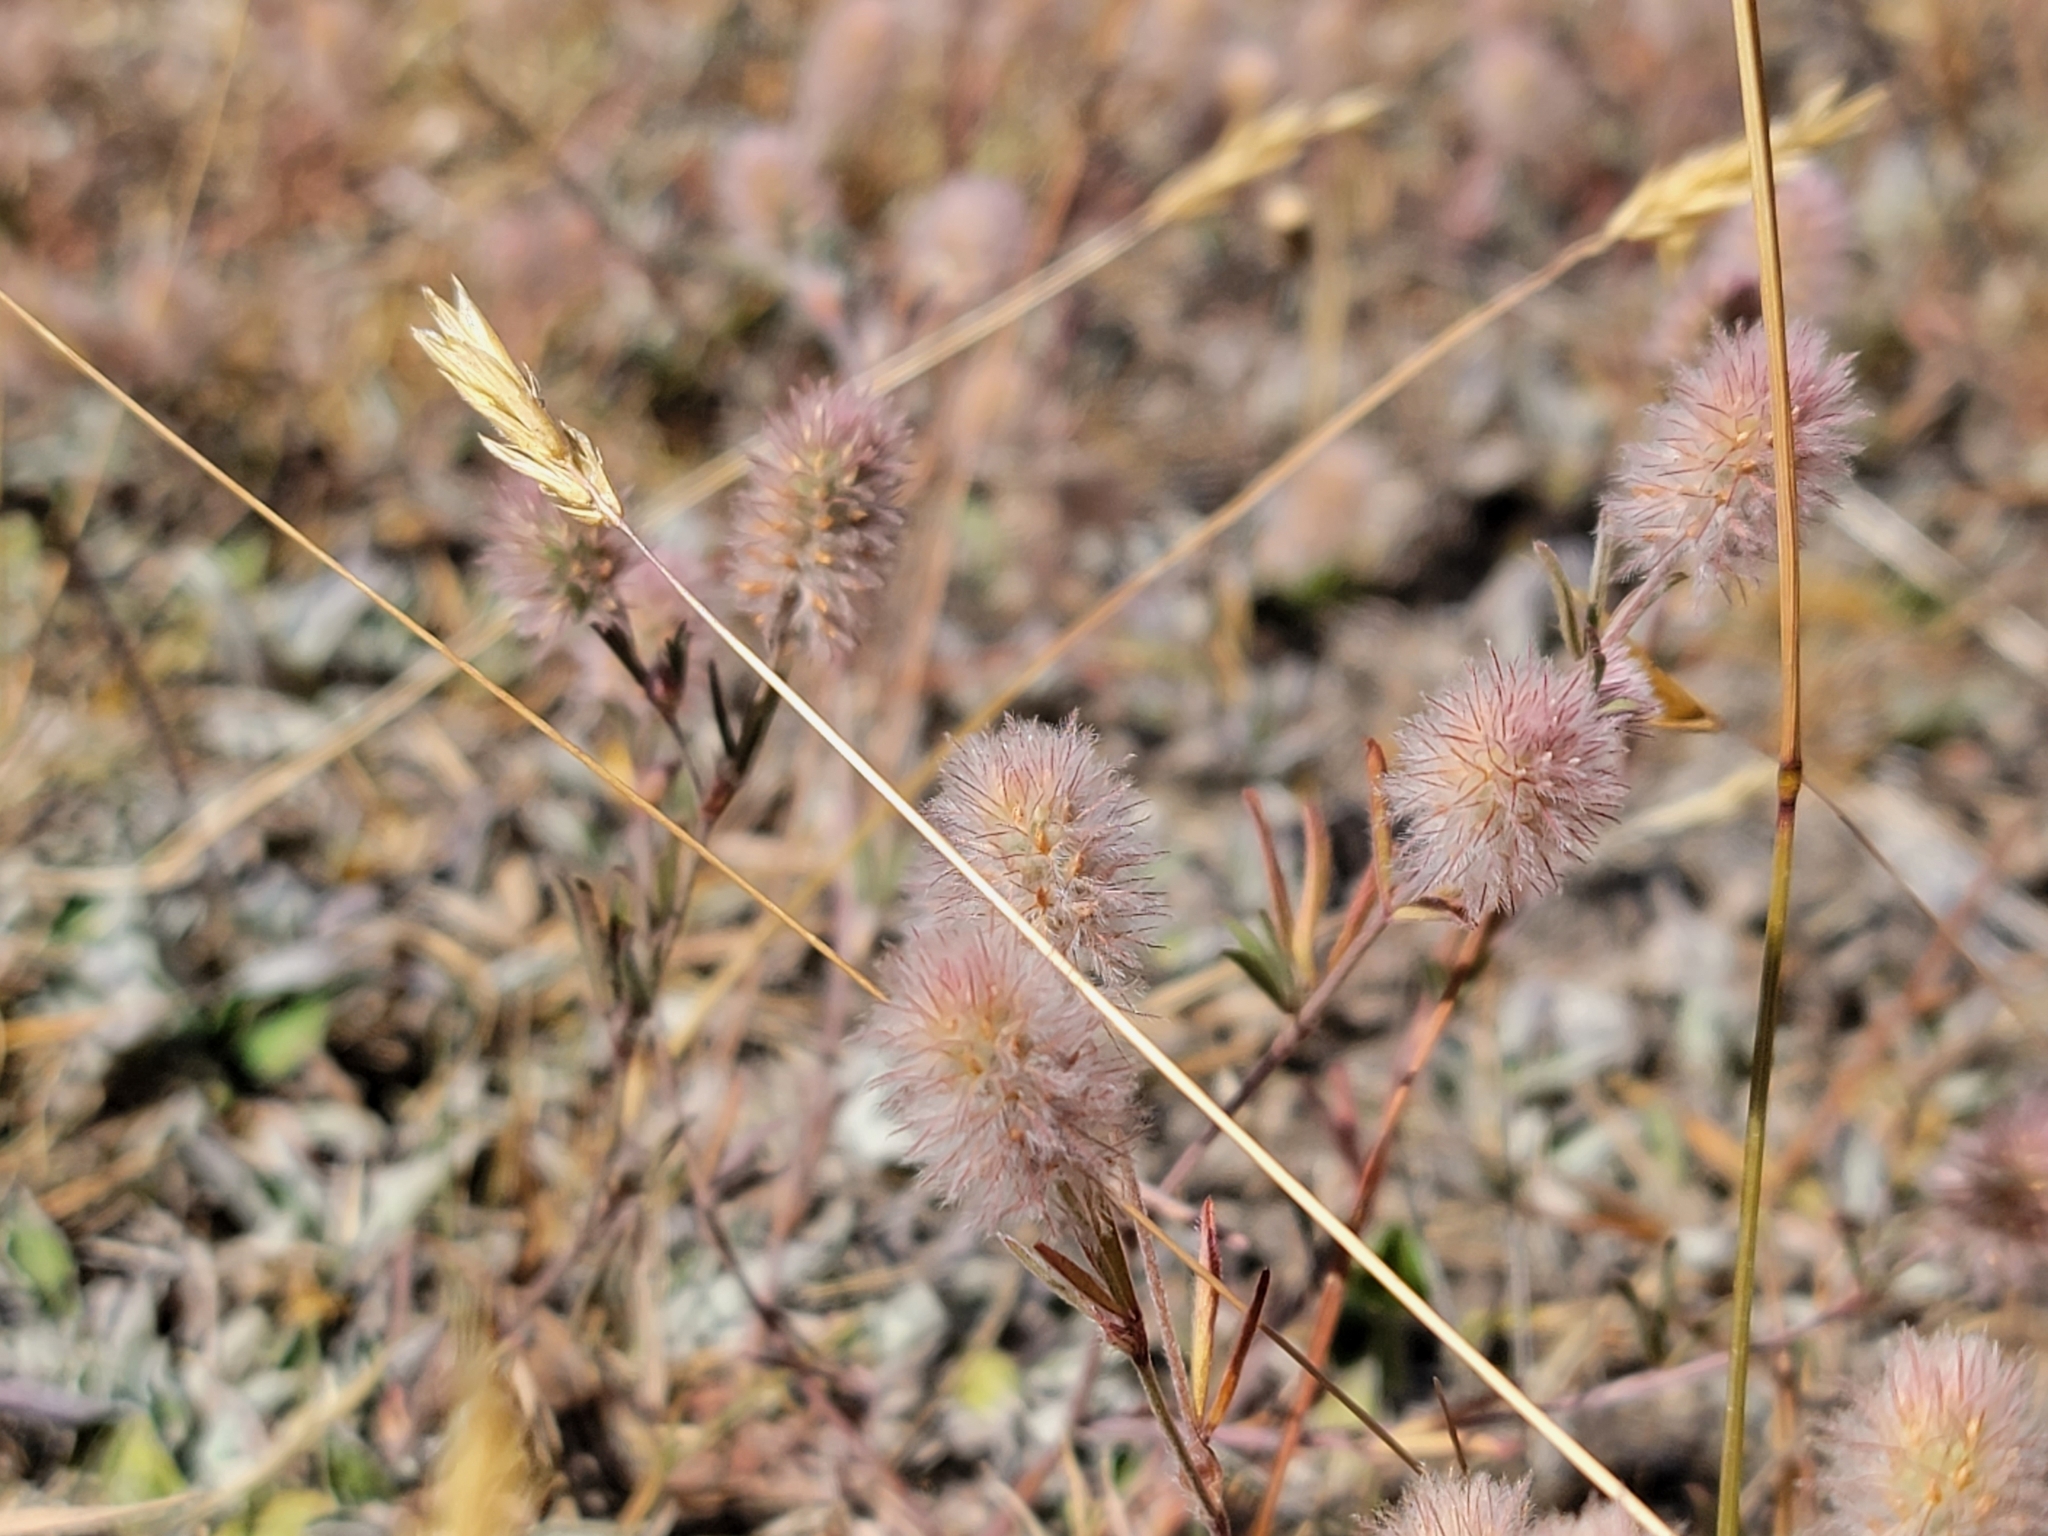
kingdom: Plantae
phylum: Tracheophyta
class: Magnoliopsida
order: Fabales
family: Fabaceae
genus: Trifolium
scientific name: Trifolium arvense
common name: Hare's-foot clover
